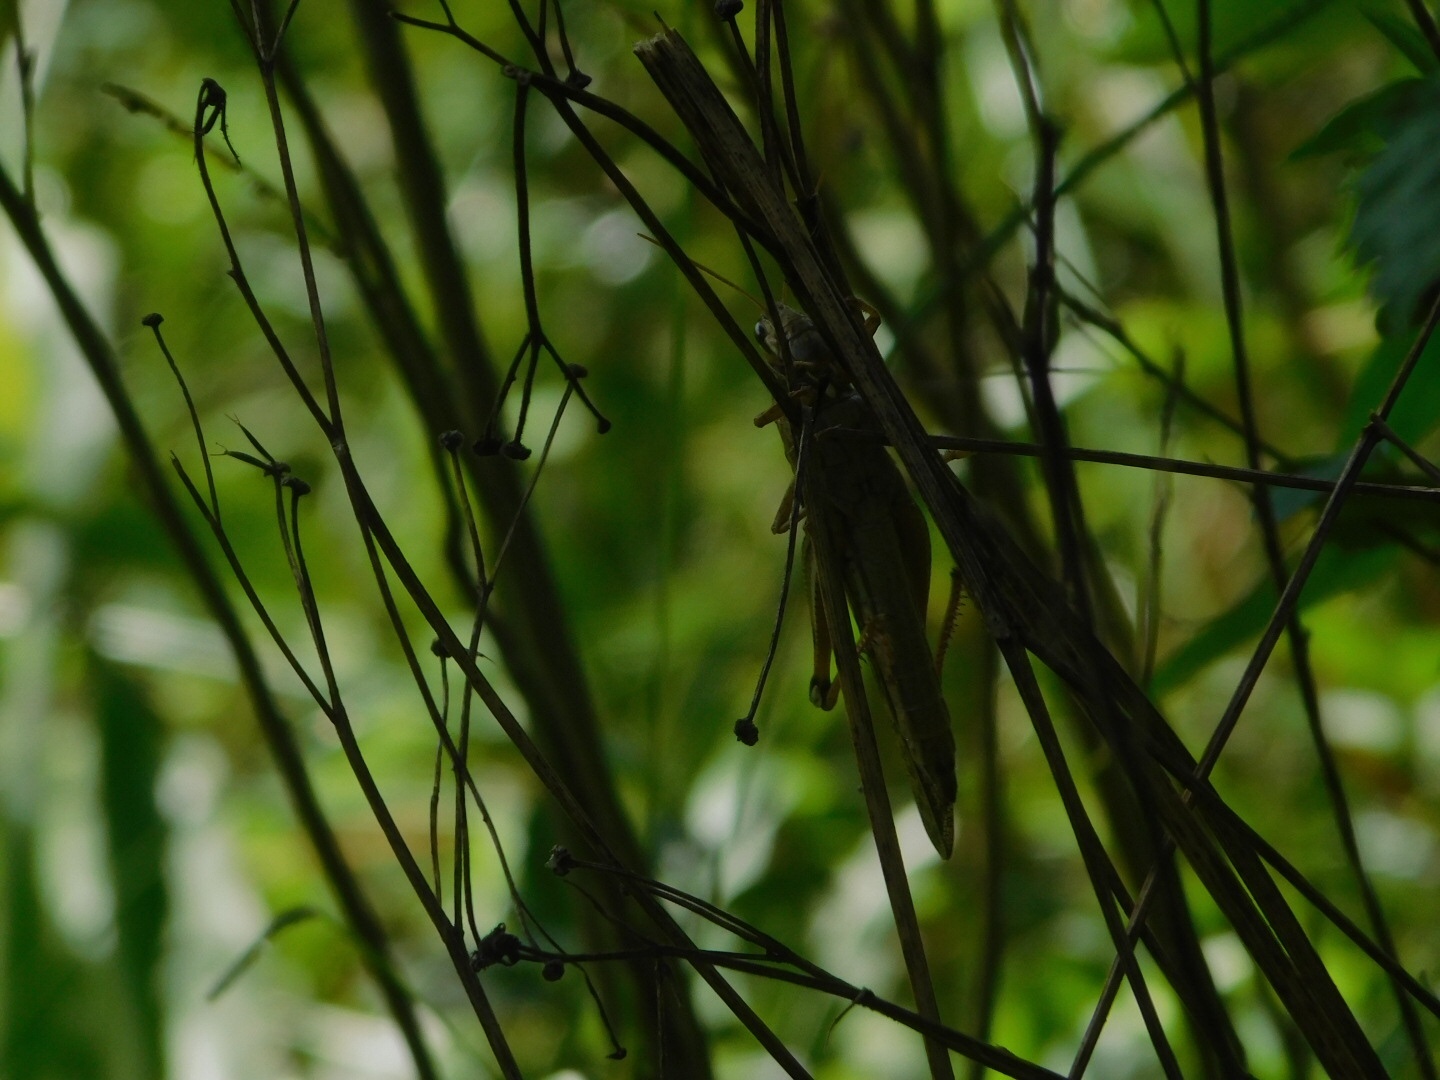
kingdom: Animalia
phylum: Arthropoda
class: Insecta
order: Orthoptera
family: Acrididae
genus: Schistocerca
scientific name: Schistocerca americana
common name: American bird locust
